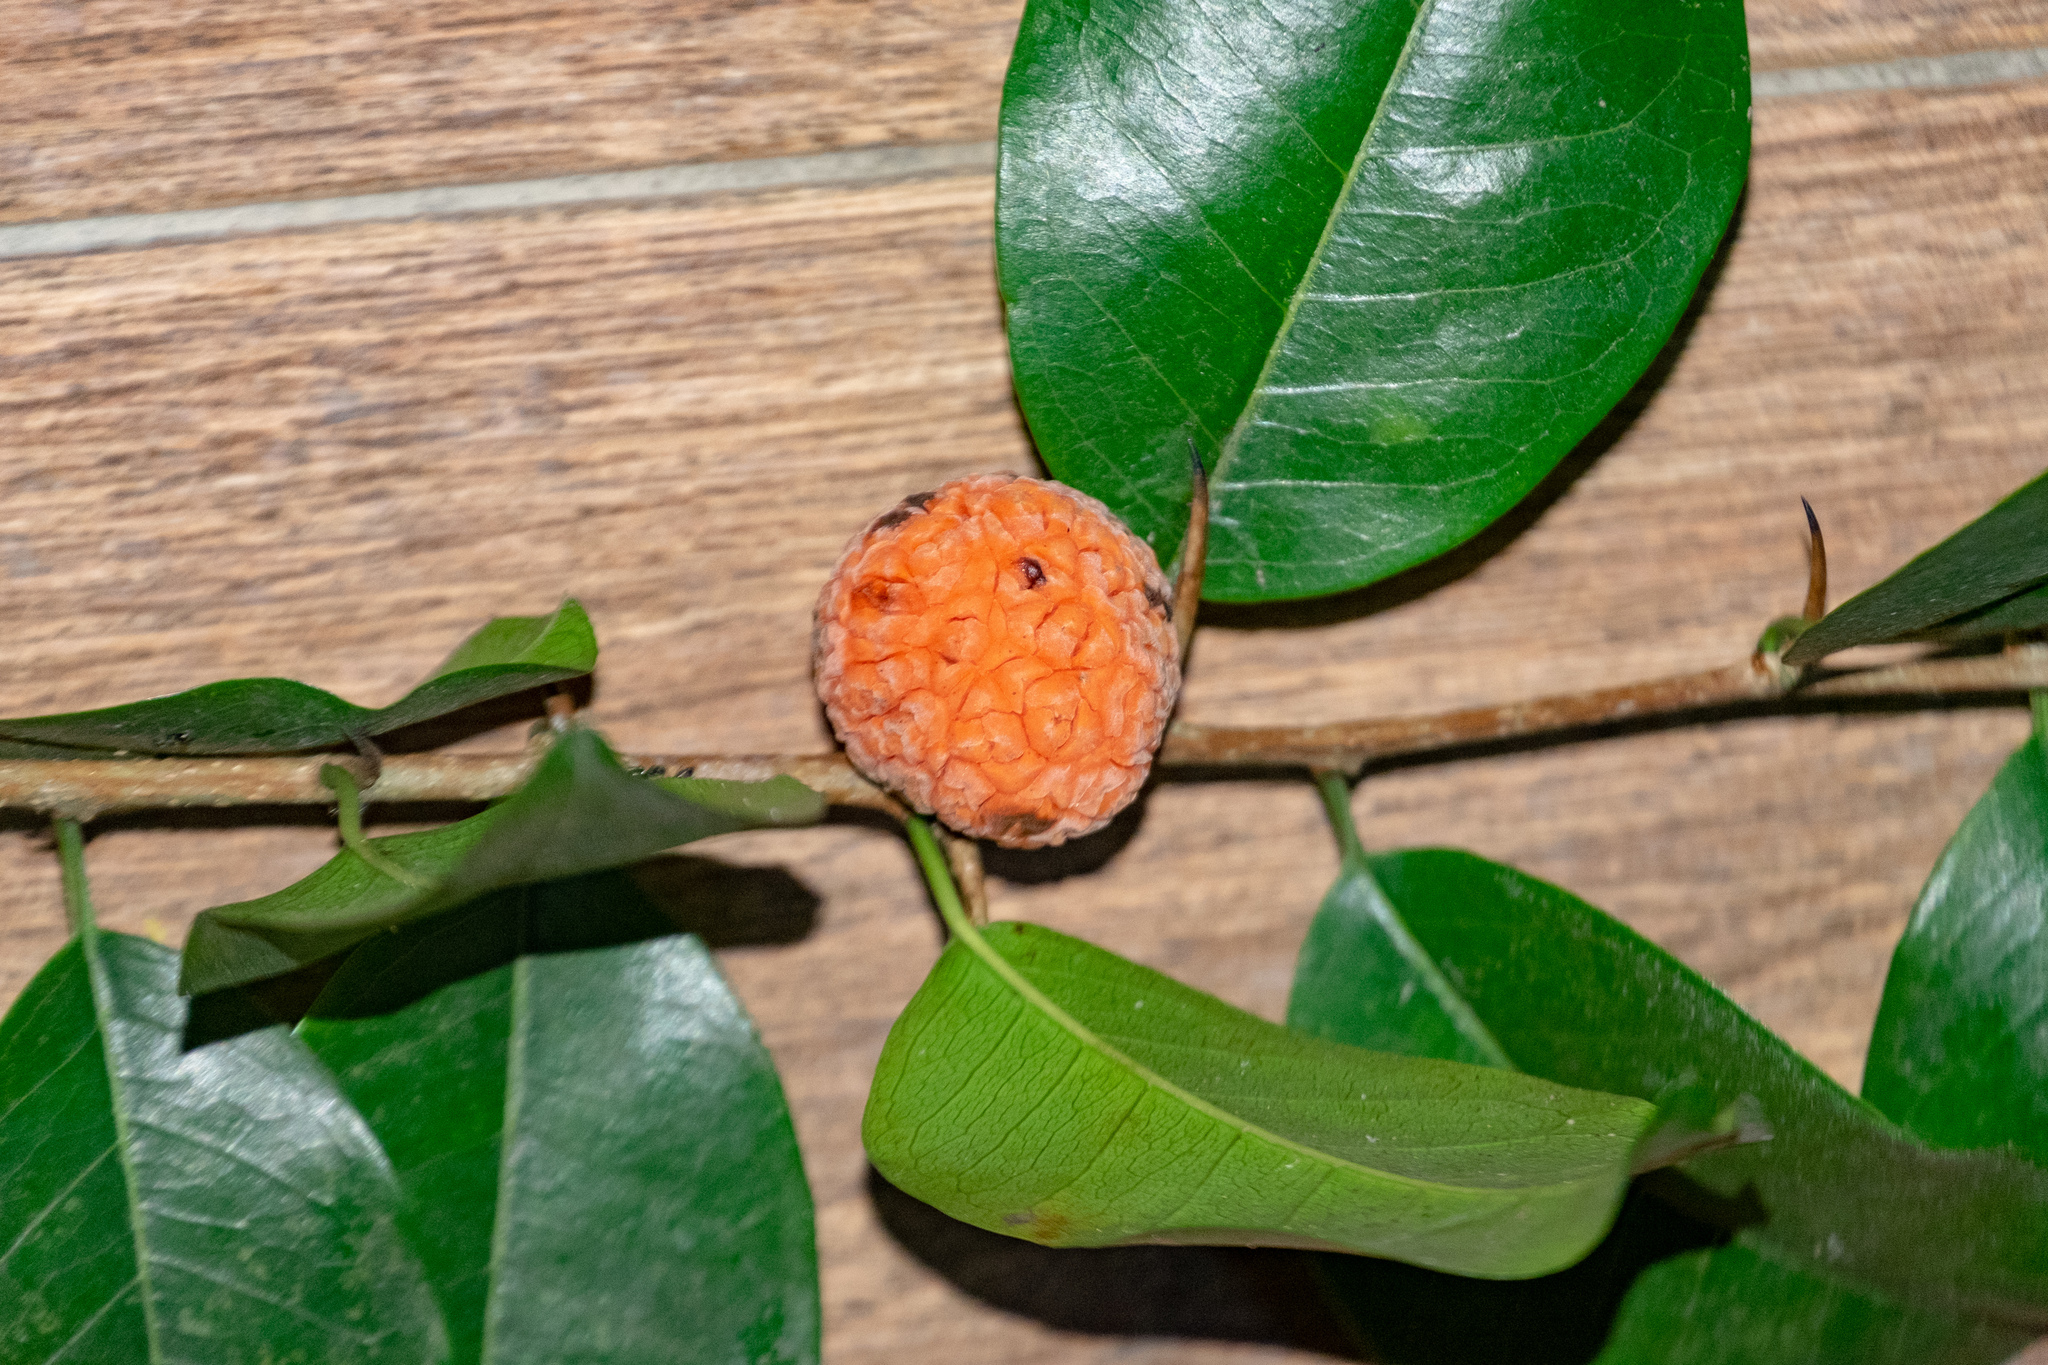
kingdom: Plantae
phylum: Tracheophyta
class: Magnoliopsida
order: Rosales
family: Moraceae
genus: Maclura
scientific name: Maclura cochinchinensis
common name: Cockspurthorn
